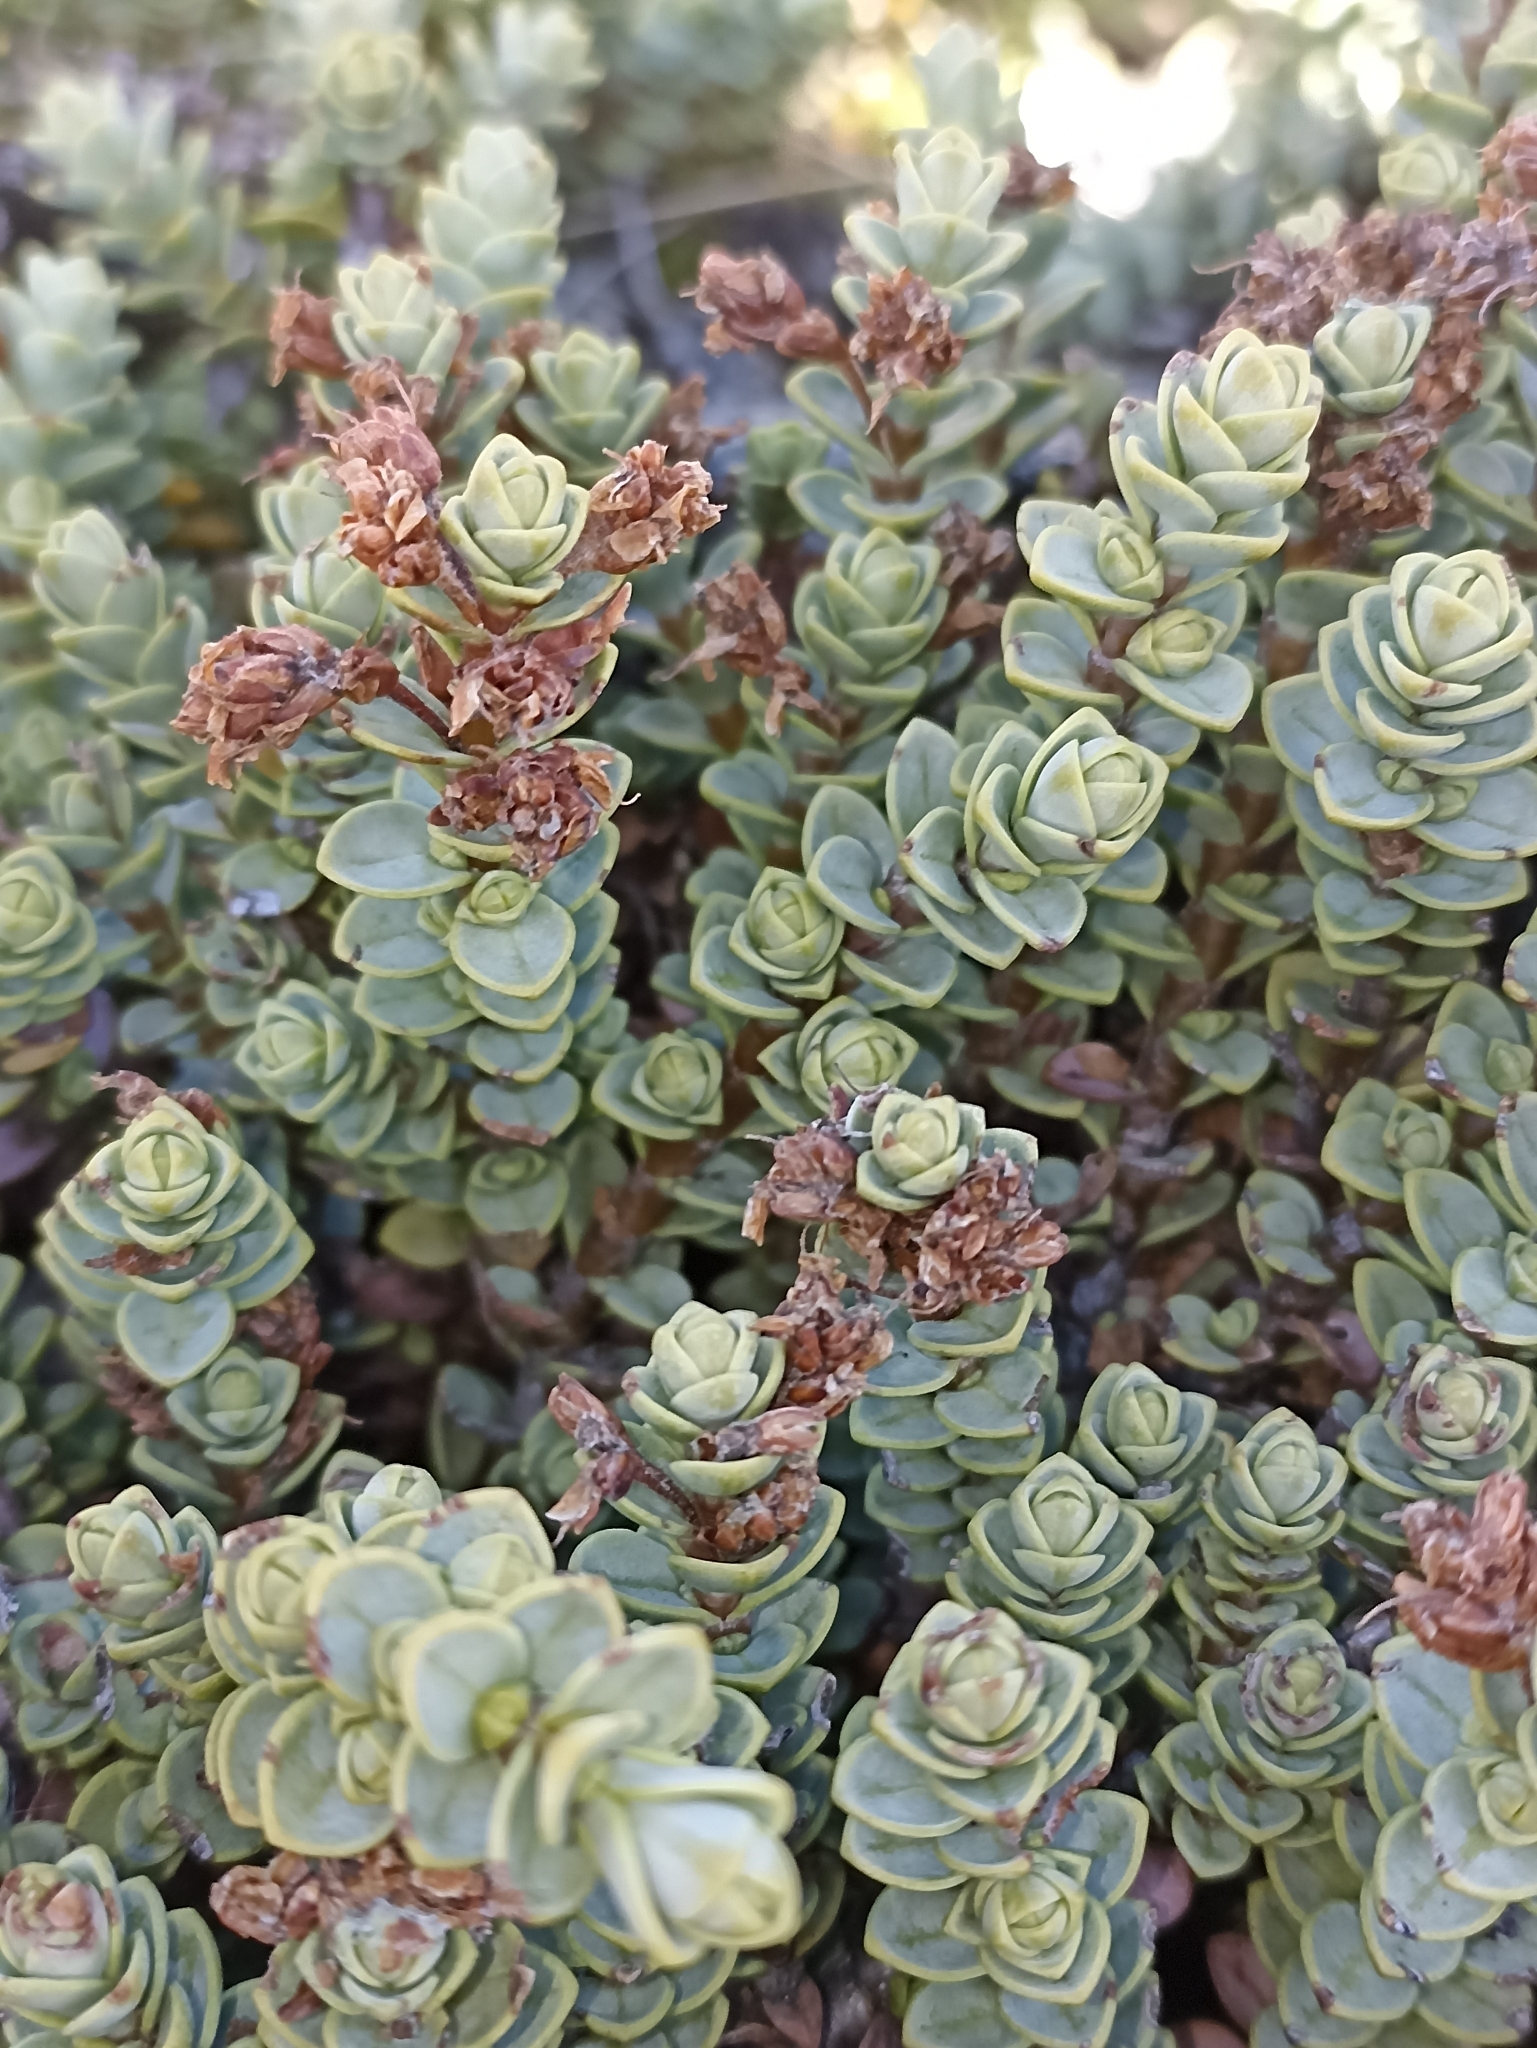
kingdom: Plantae
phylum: Tracheophyta
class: Magnoliopsida
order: Lamiales
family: Plantaginaceae
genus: Veronica
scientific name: Veronica buchananii
